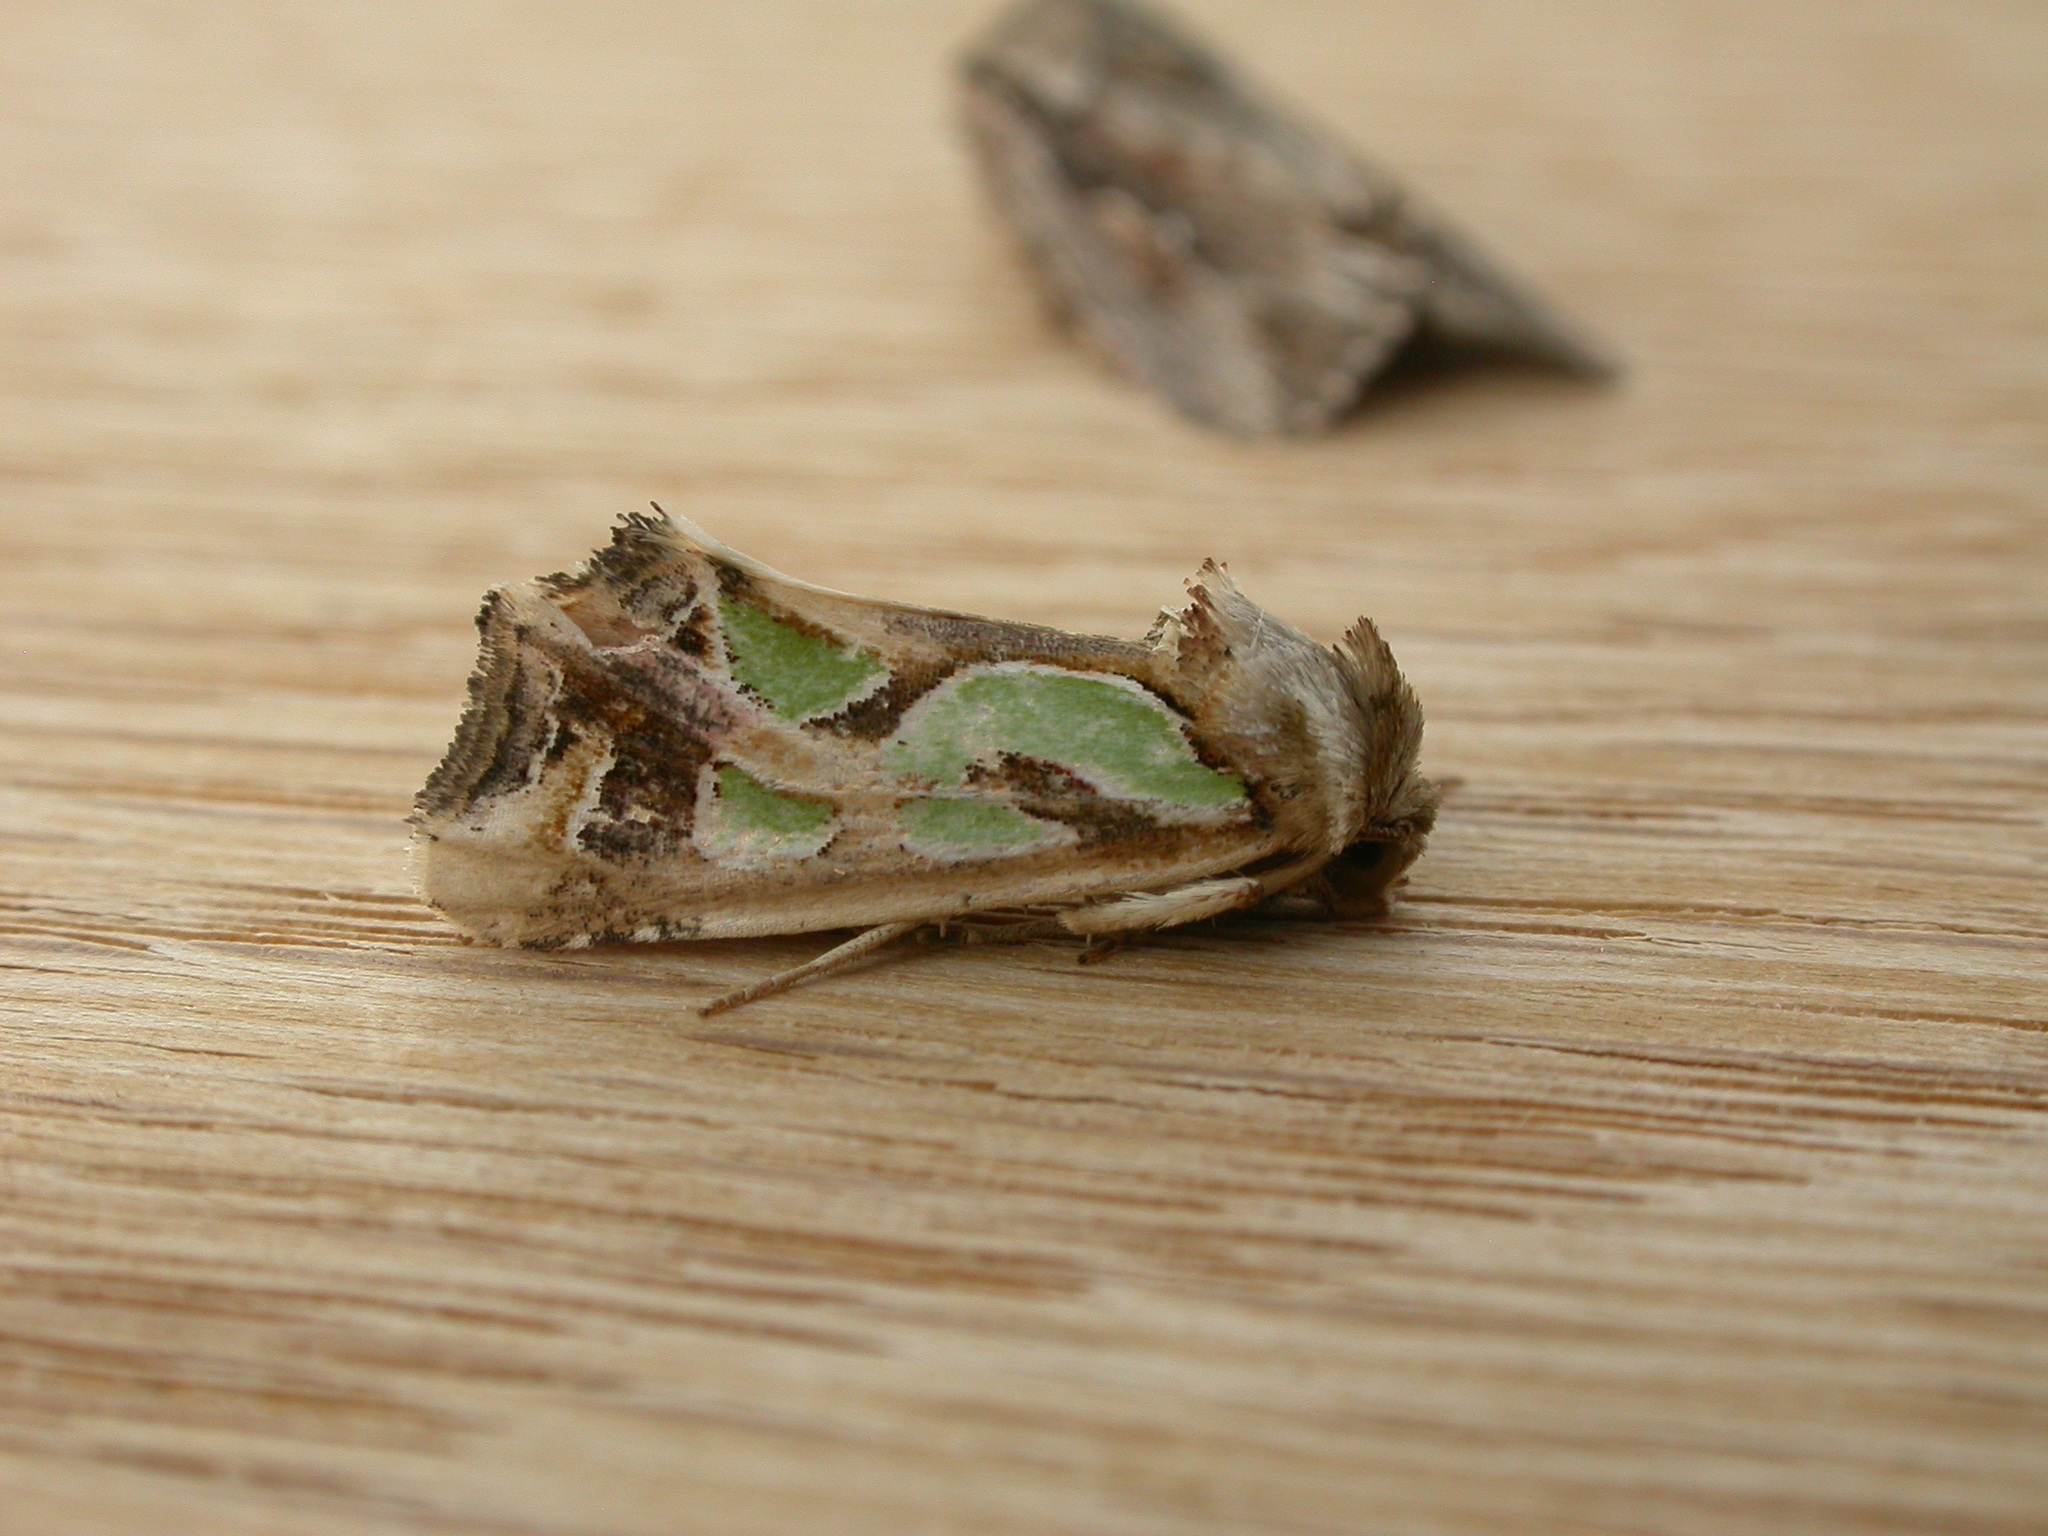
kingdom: Animalia
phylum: Arthropoda
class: Insecta
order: Lepidoptera
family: Noctuidae
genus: Cosmodes
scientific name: Cosmodes elegans
